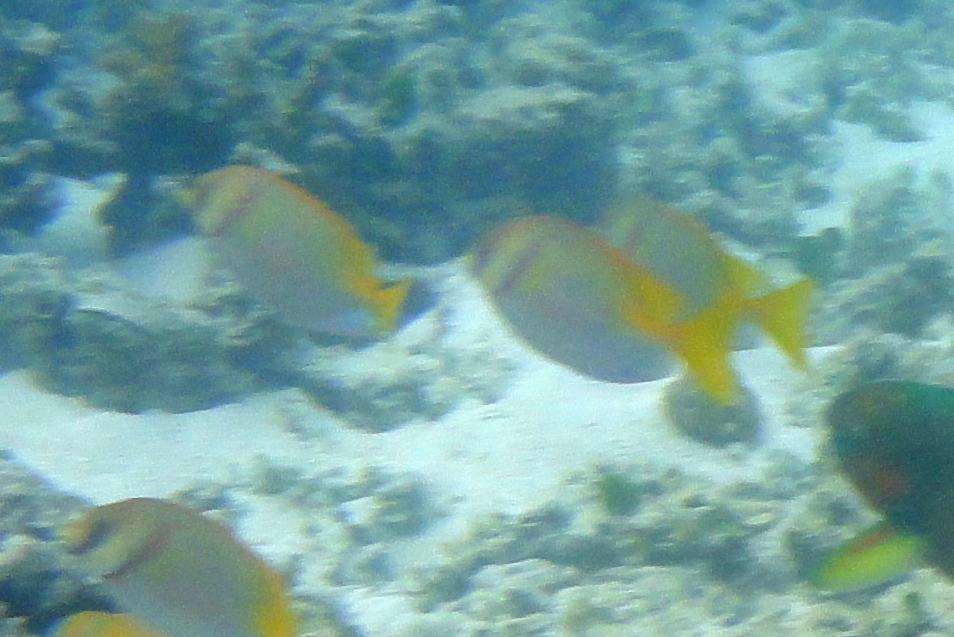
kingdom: Animalia
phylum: Chordata
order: Perciformes
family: Siganidae
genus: Siganus
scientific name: Siganus doliatus
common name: Barred spinefoot
